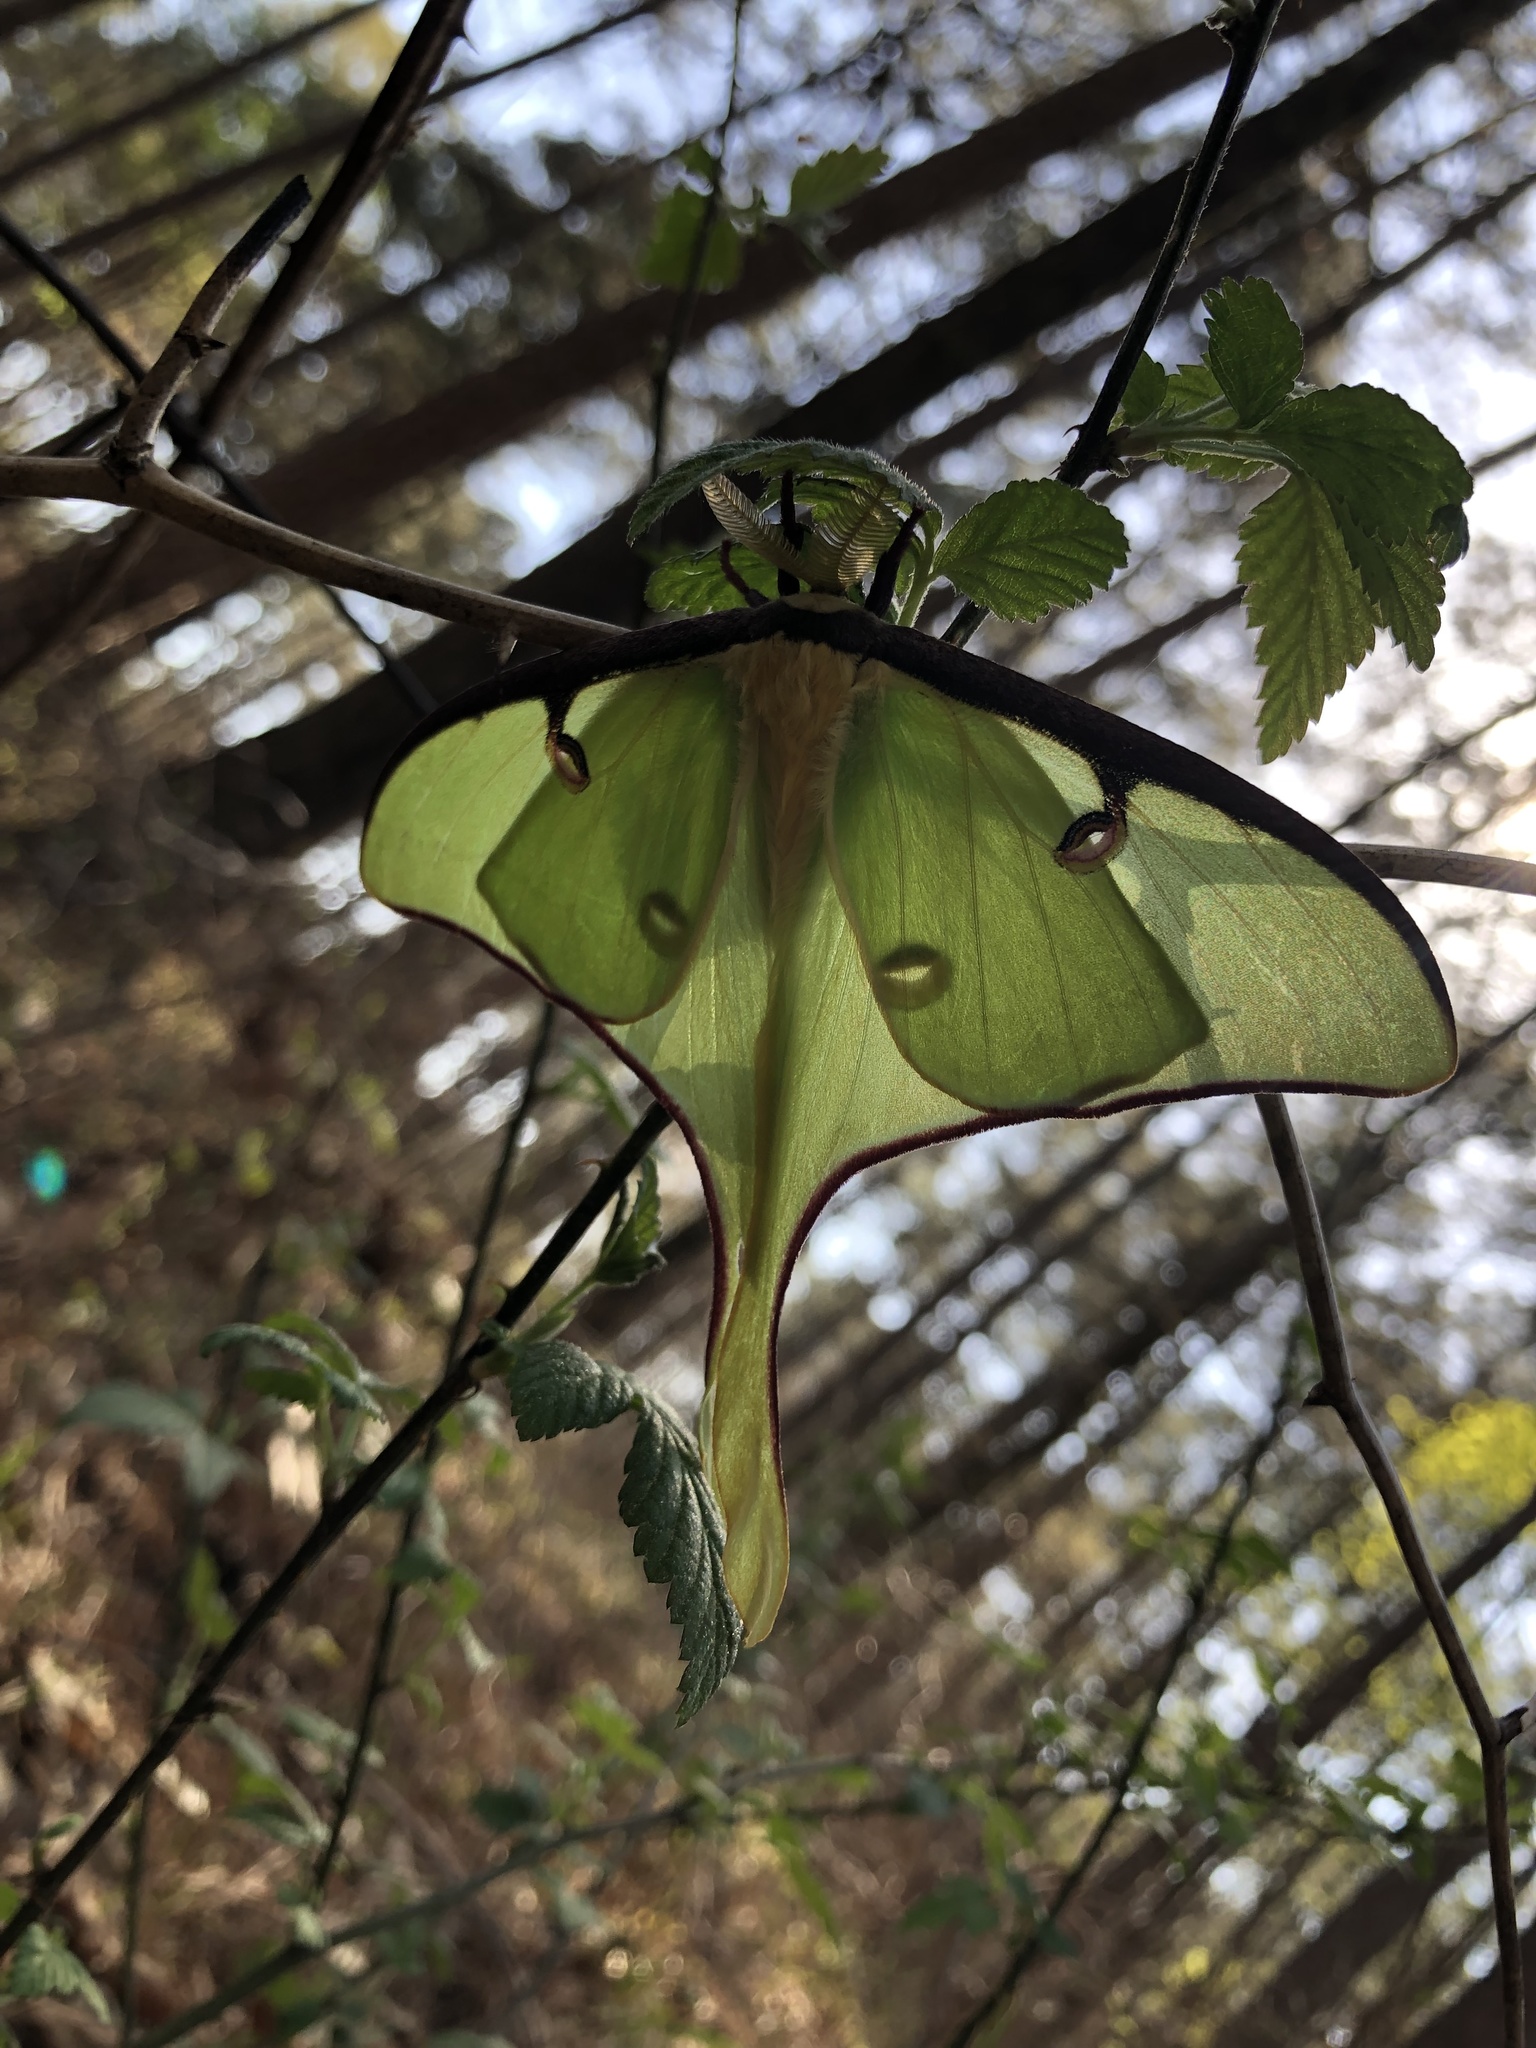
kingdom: Animalia
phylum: Arthropoda
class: Insecta
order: Lepidoptera
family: Saturniidae
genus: Actias
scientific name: Actias luna
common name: Luna moth
